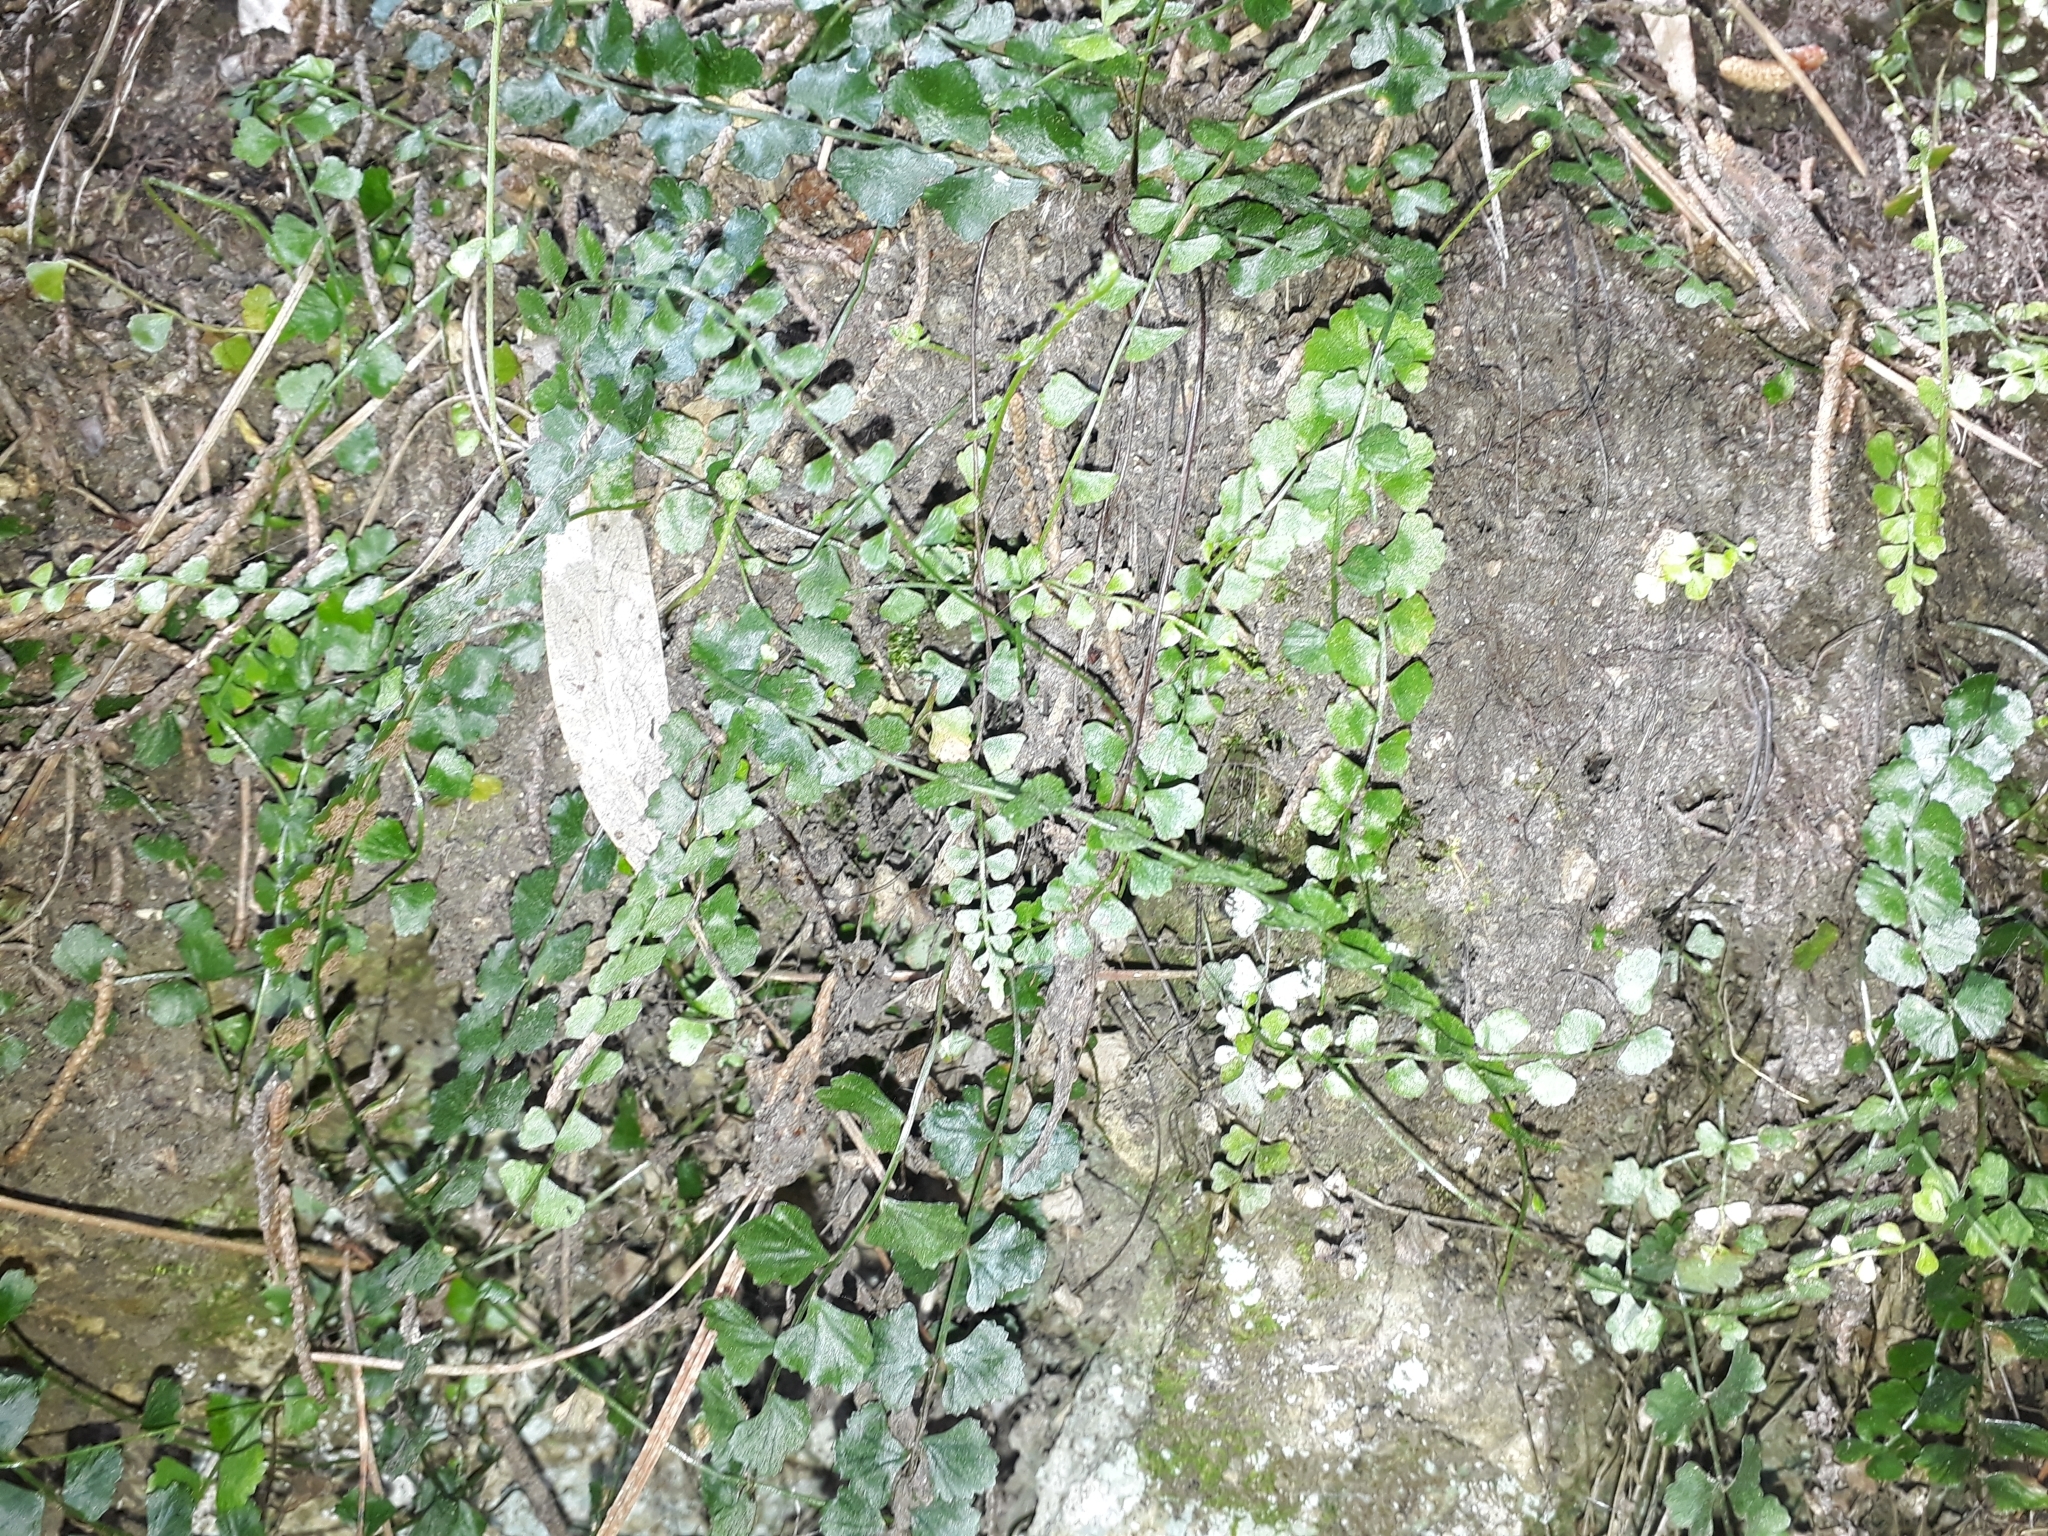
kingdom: Plantae
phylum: Tracheophyta
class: Polypodiopsida
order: Polypodiales
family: Aspleniaceae
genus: Asplenium
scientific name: Asplenium flabellifolium
